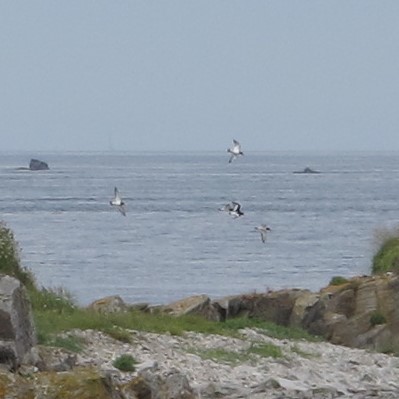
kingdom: Animalia
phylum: Chordata
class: Aves
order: Charadriiformes
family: Haematopodidae
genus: Haematopus
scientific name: Haematopus ostralegus
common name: Eurasian oystercatcher
